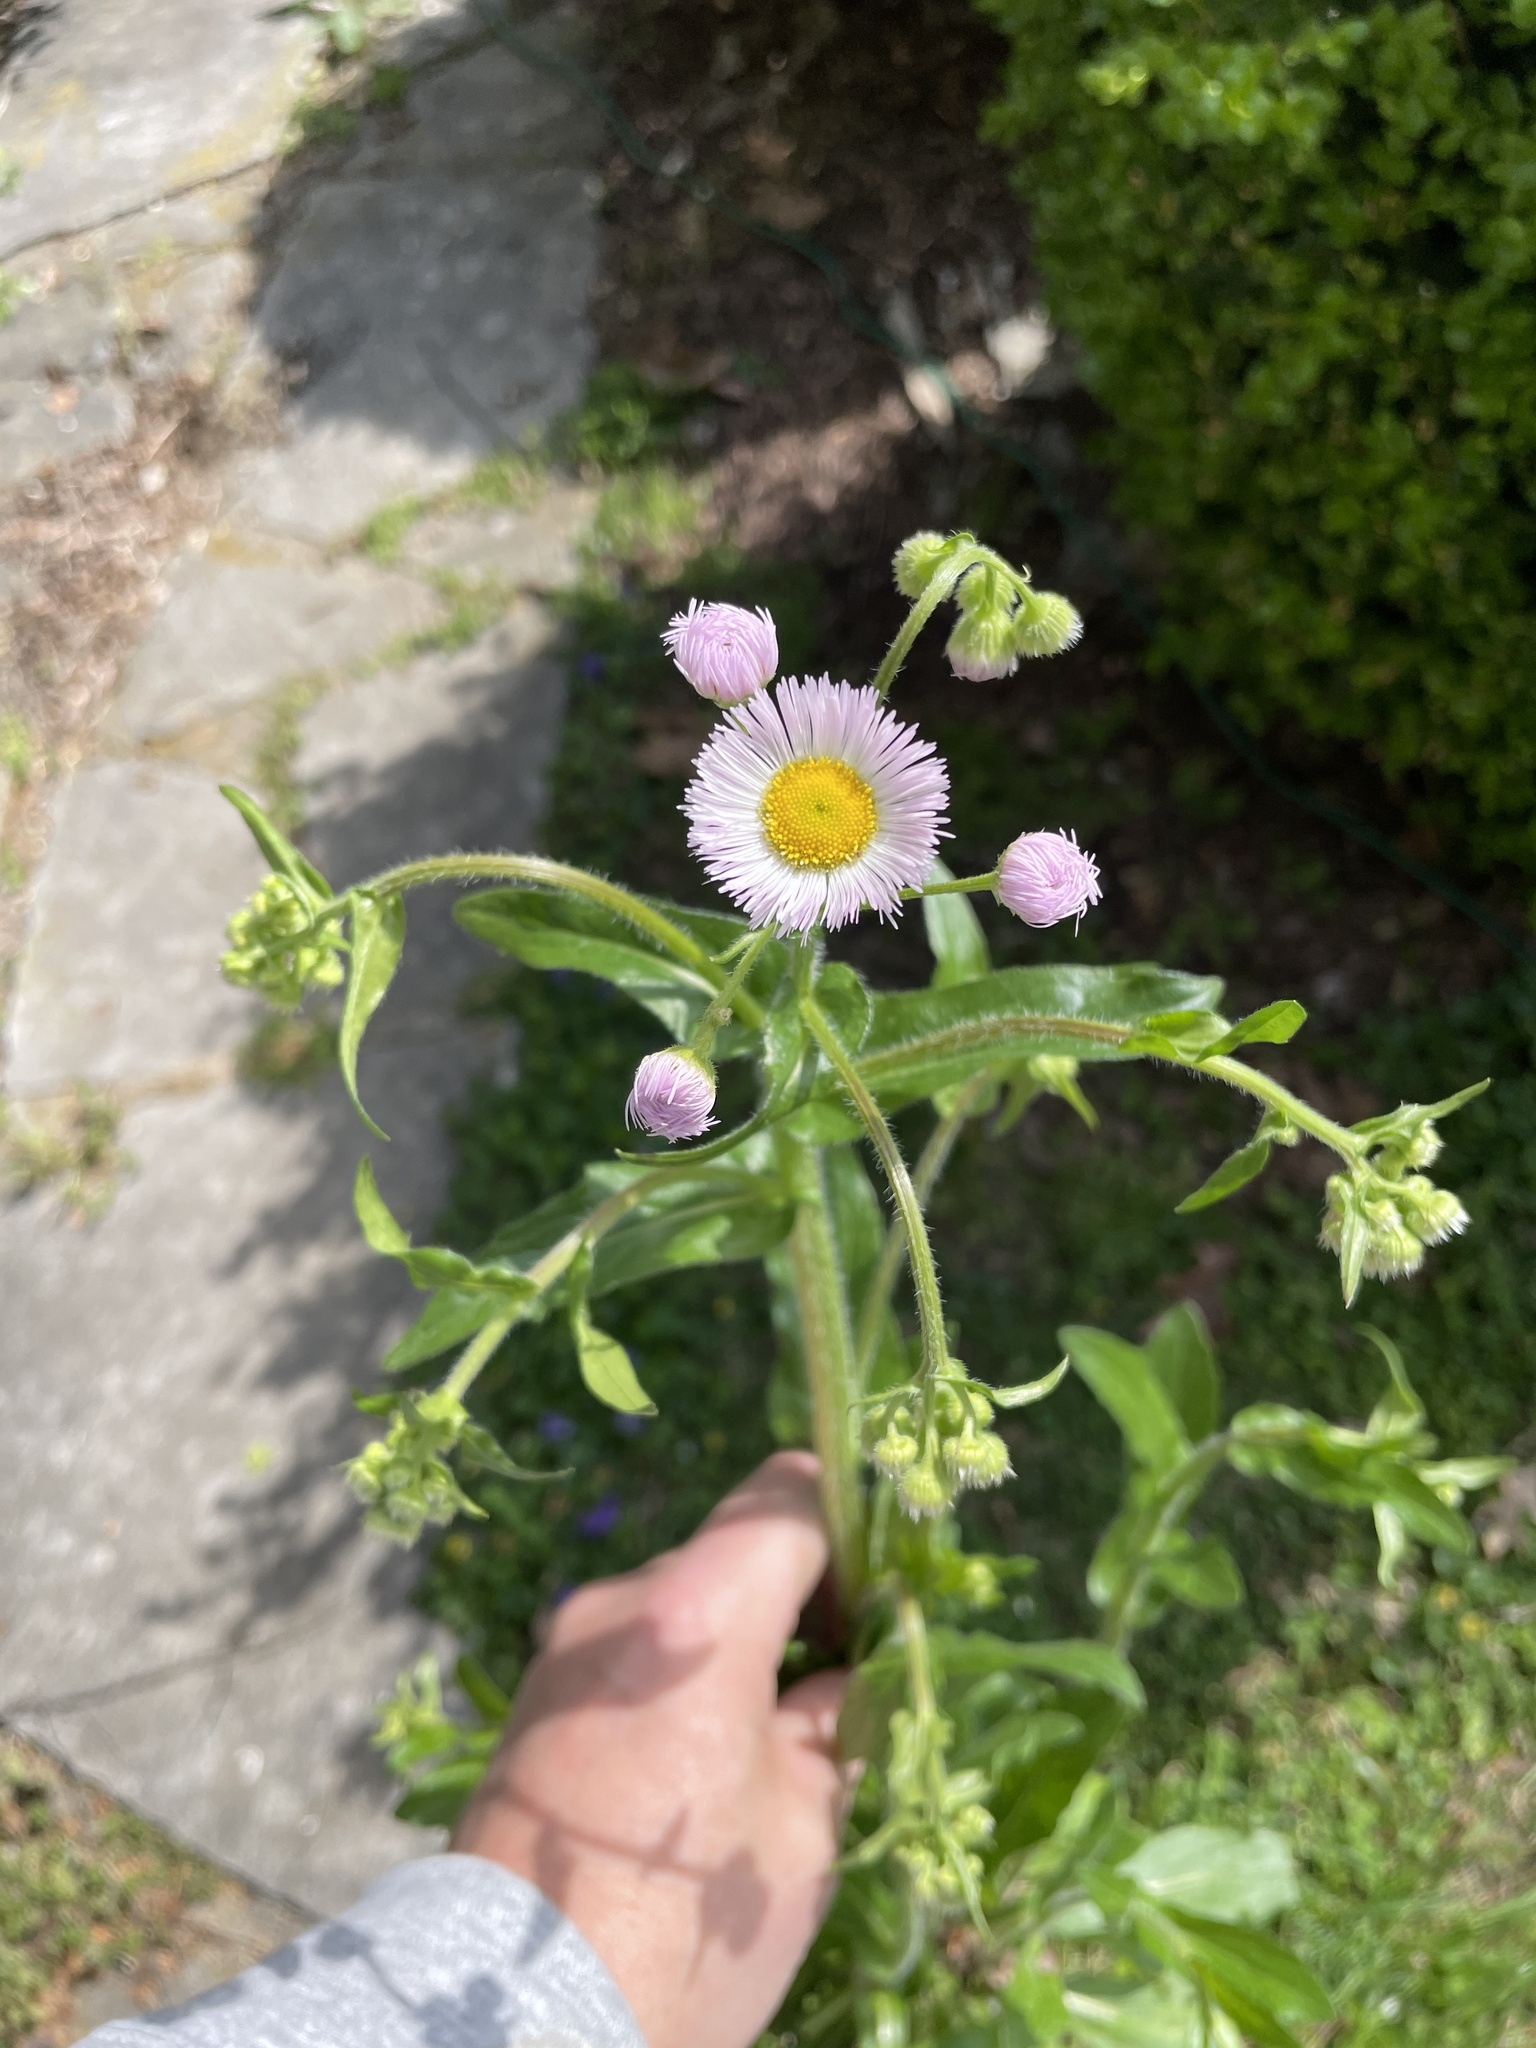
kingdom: Plantae
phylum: Tracheophyta
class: Magnoliopsida
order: Asterales
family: Asteraceae
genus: Erigeron
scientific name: Erigeron philadelphicus
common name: Robin's-plantain
